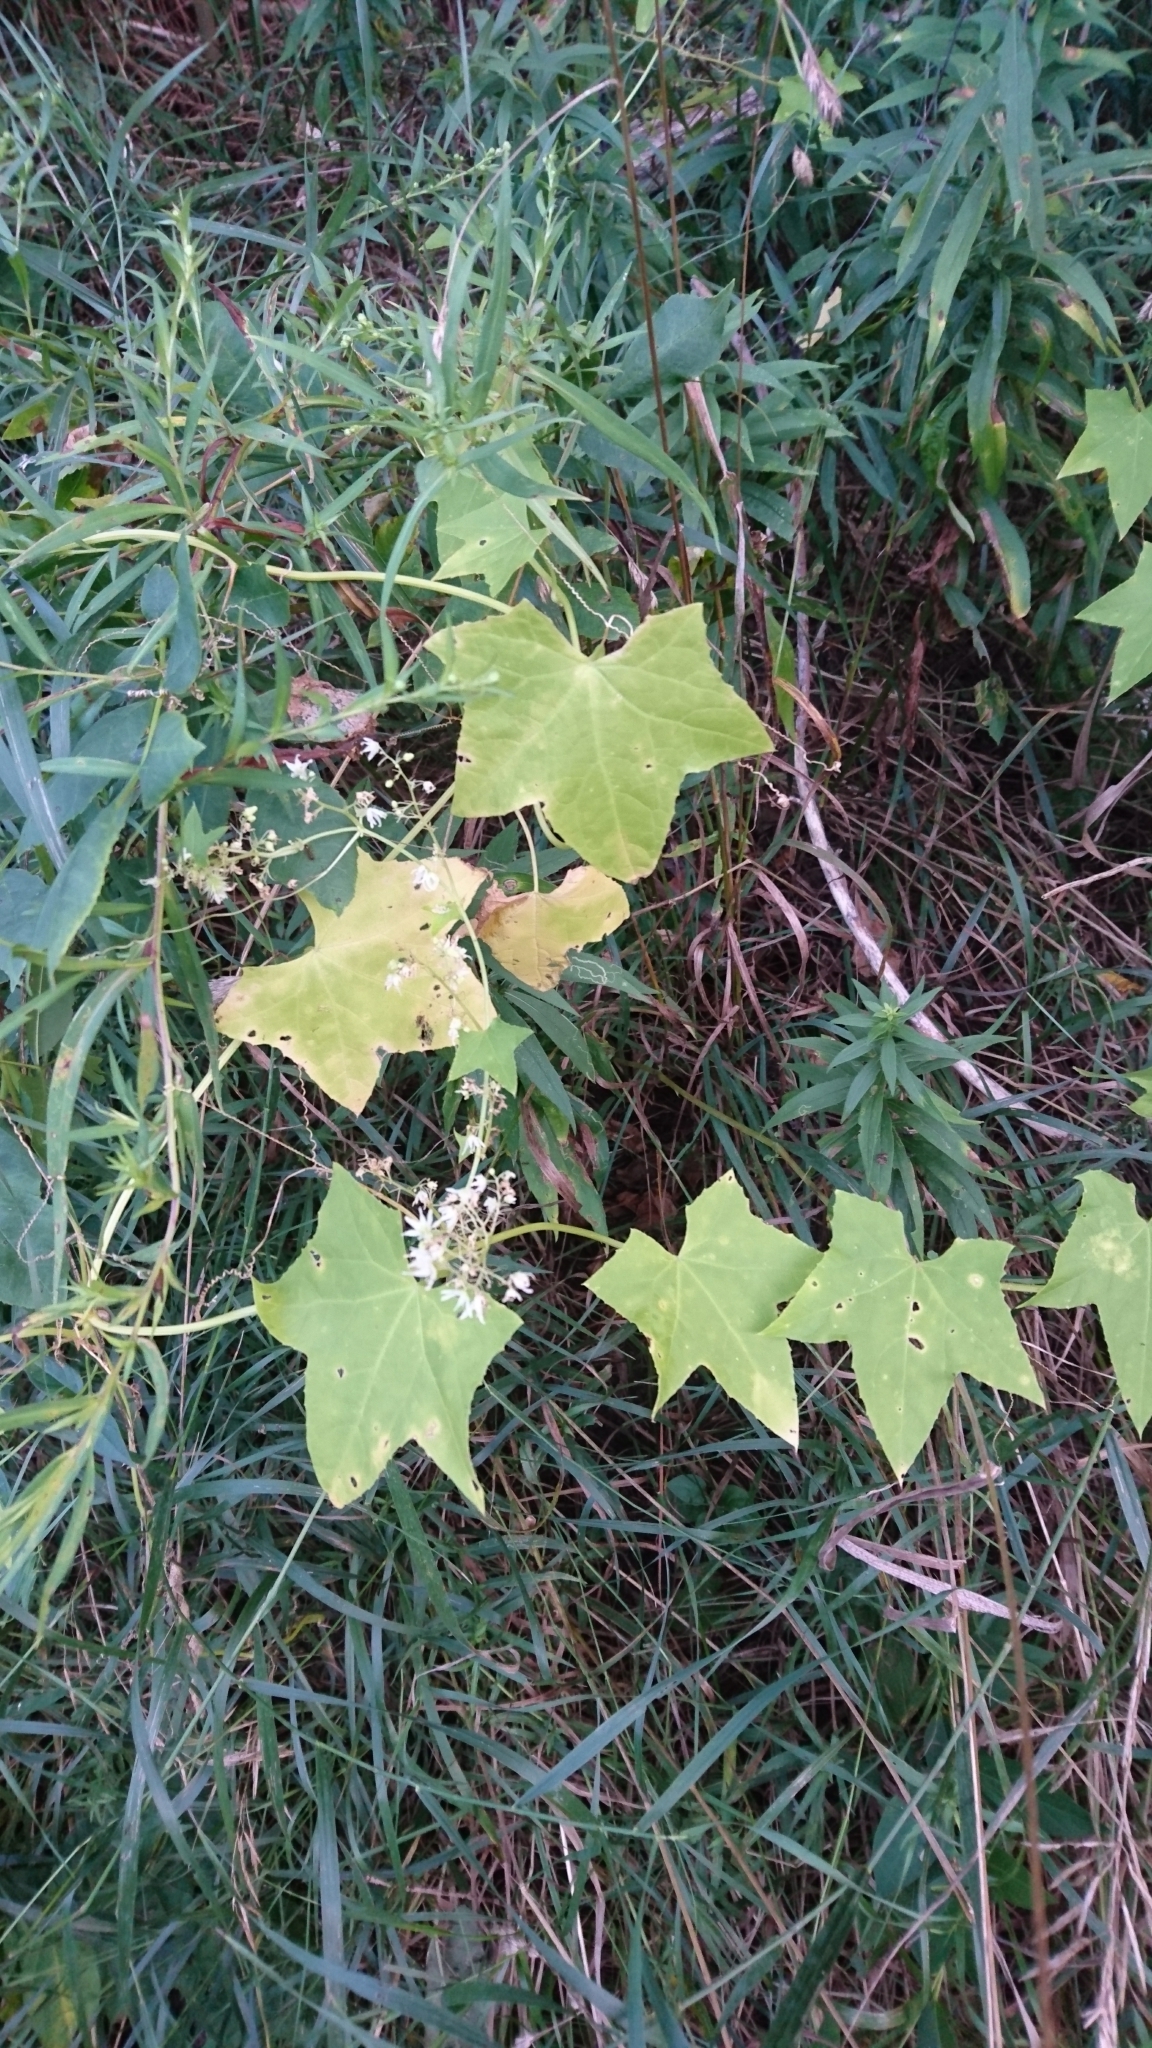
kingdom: Plantae
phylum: Tracheophyta
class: Magnoliopsida
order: Cucurbitales
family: Cucurbitaceae
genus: Echinocystis
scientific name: Echinocystis lobata
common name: Wild cucumber
